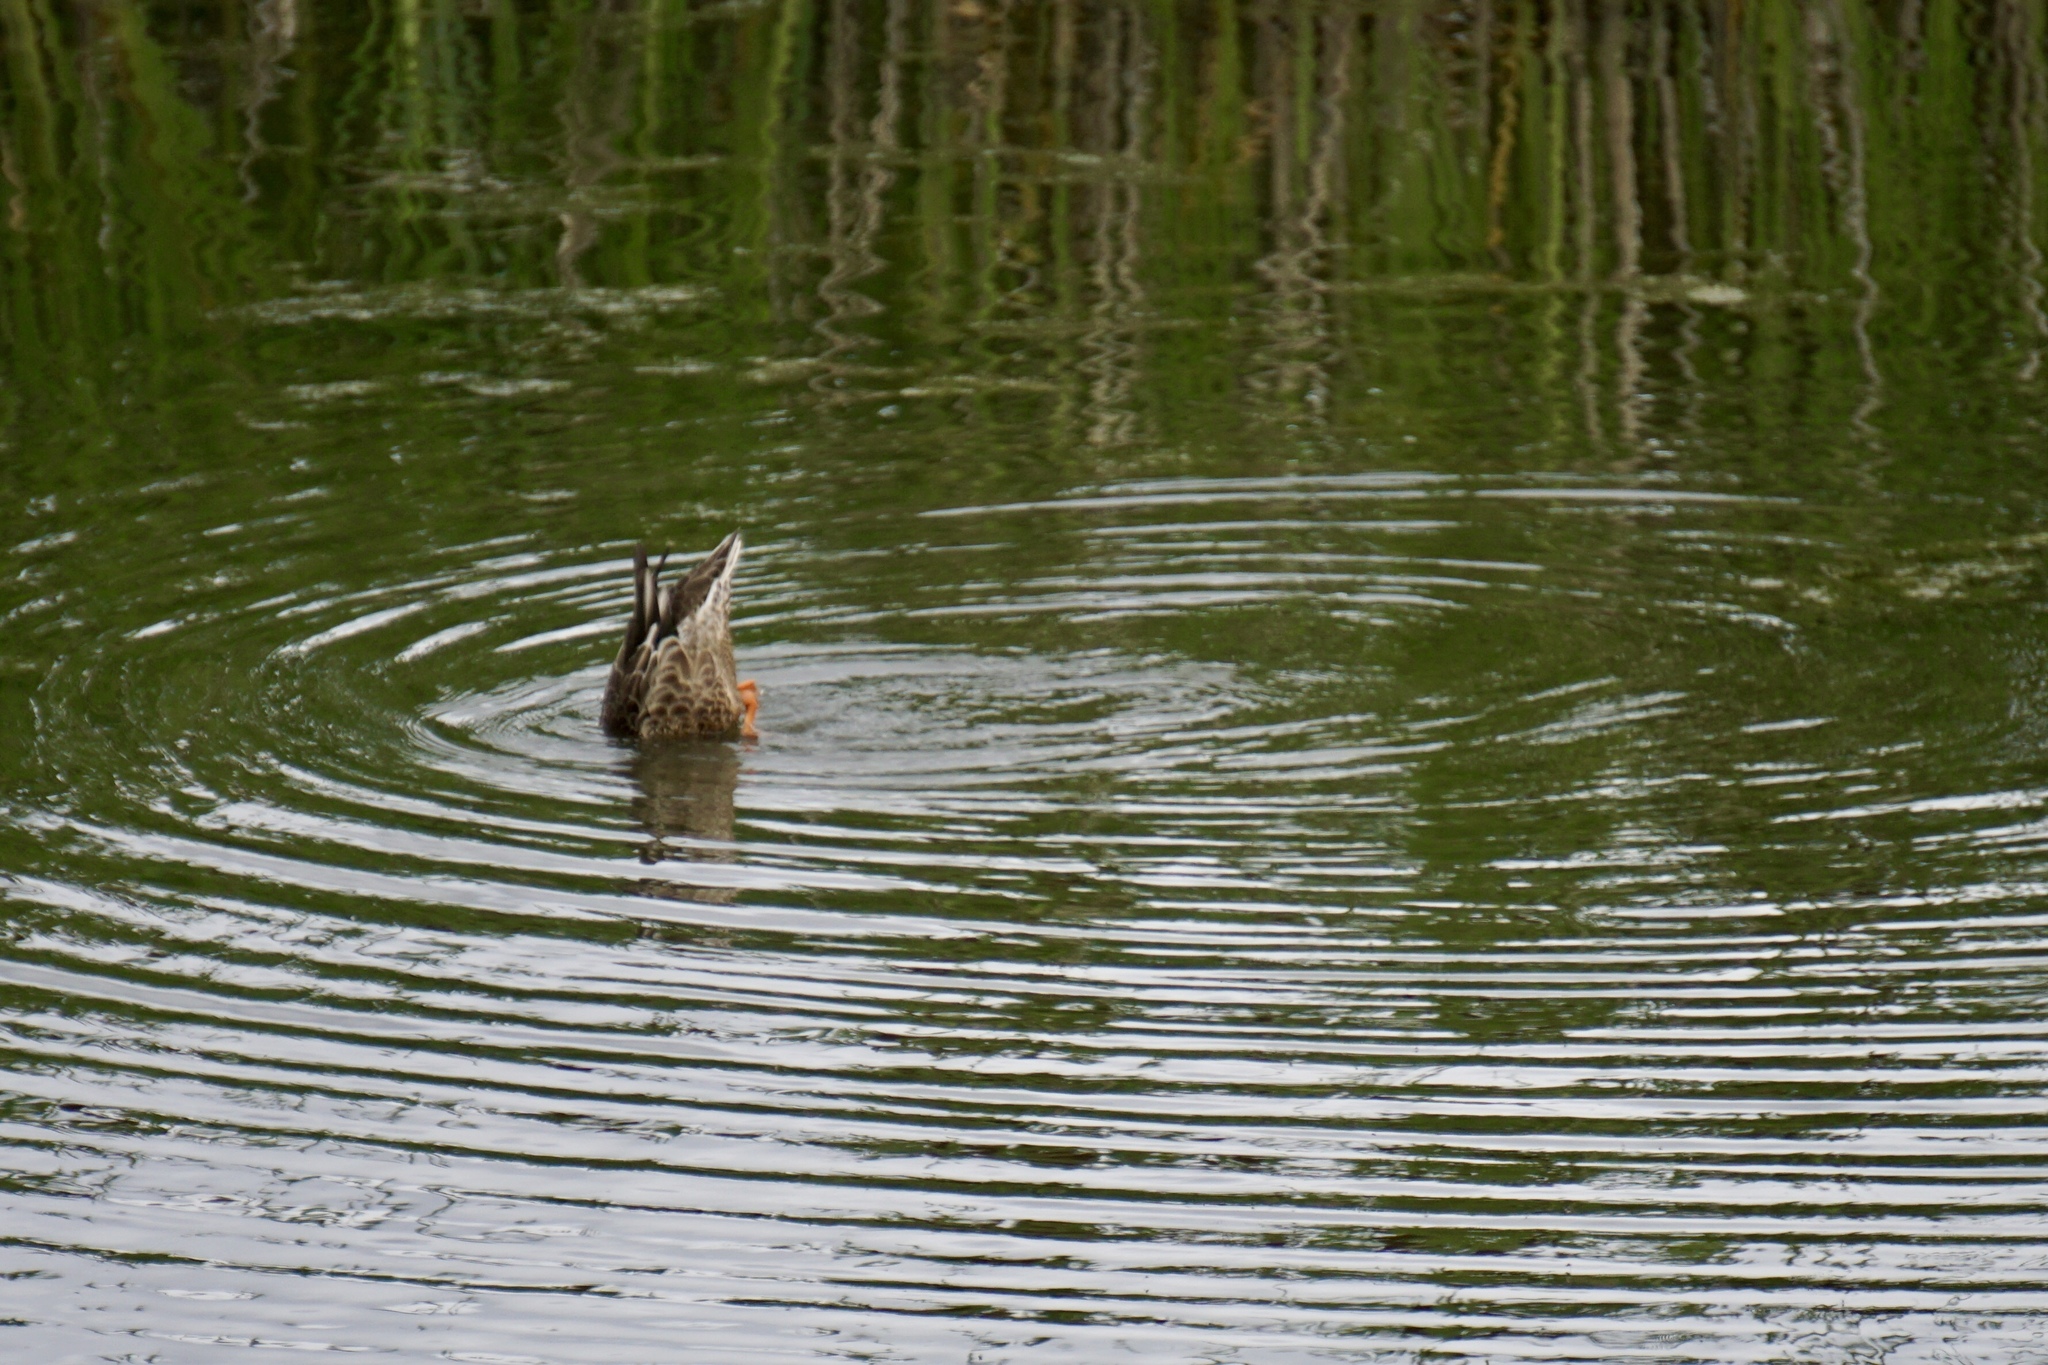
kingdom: Animalia
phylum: Chordata
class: Aves
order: Anseriformes
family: Anatidae
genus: Anas
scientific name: Anas platyrhynchos
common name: Mallard
